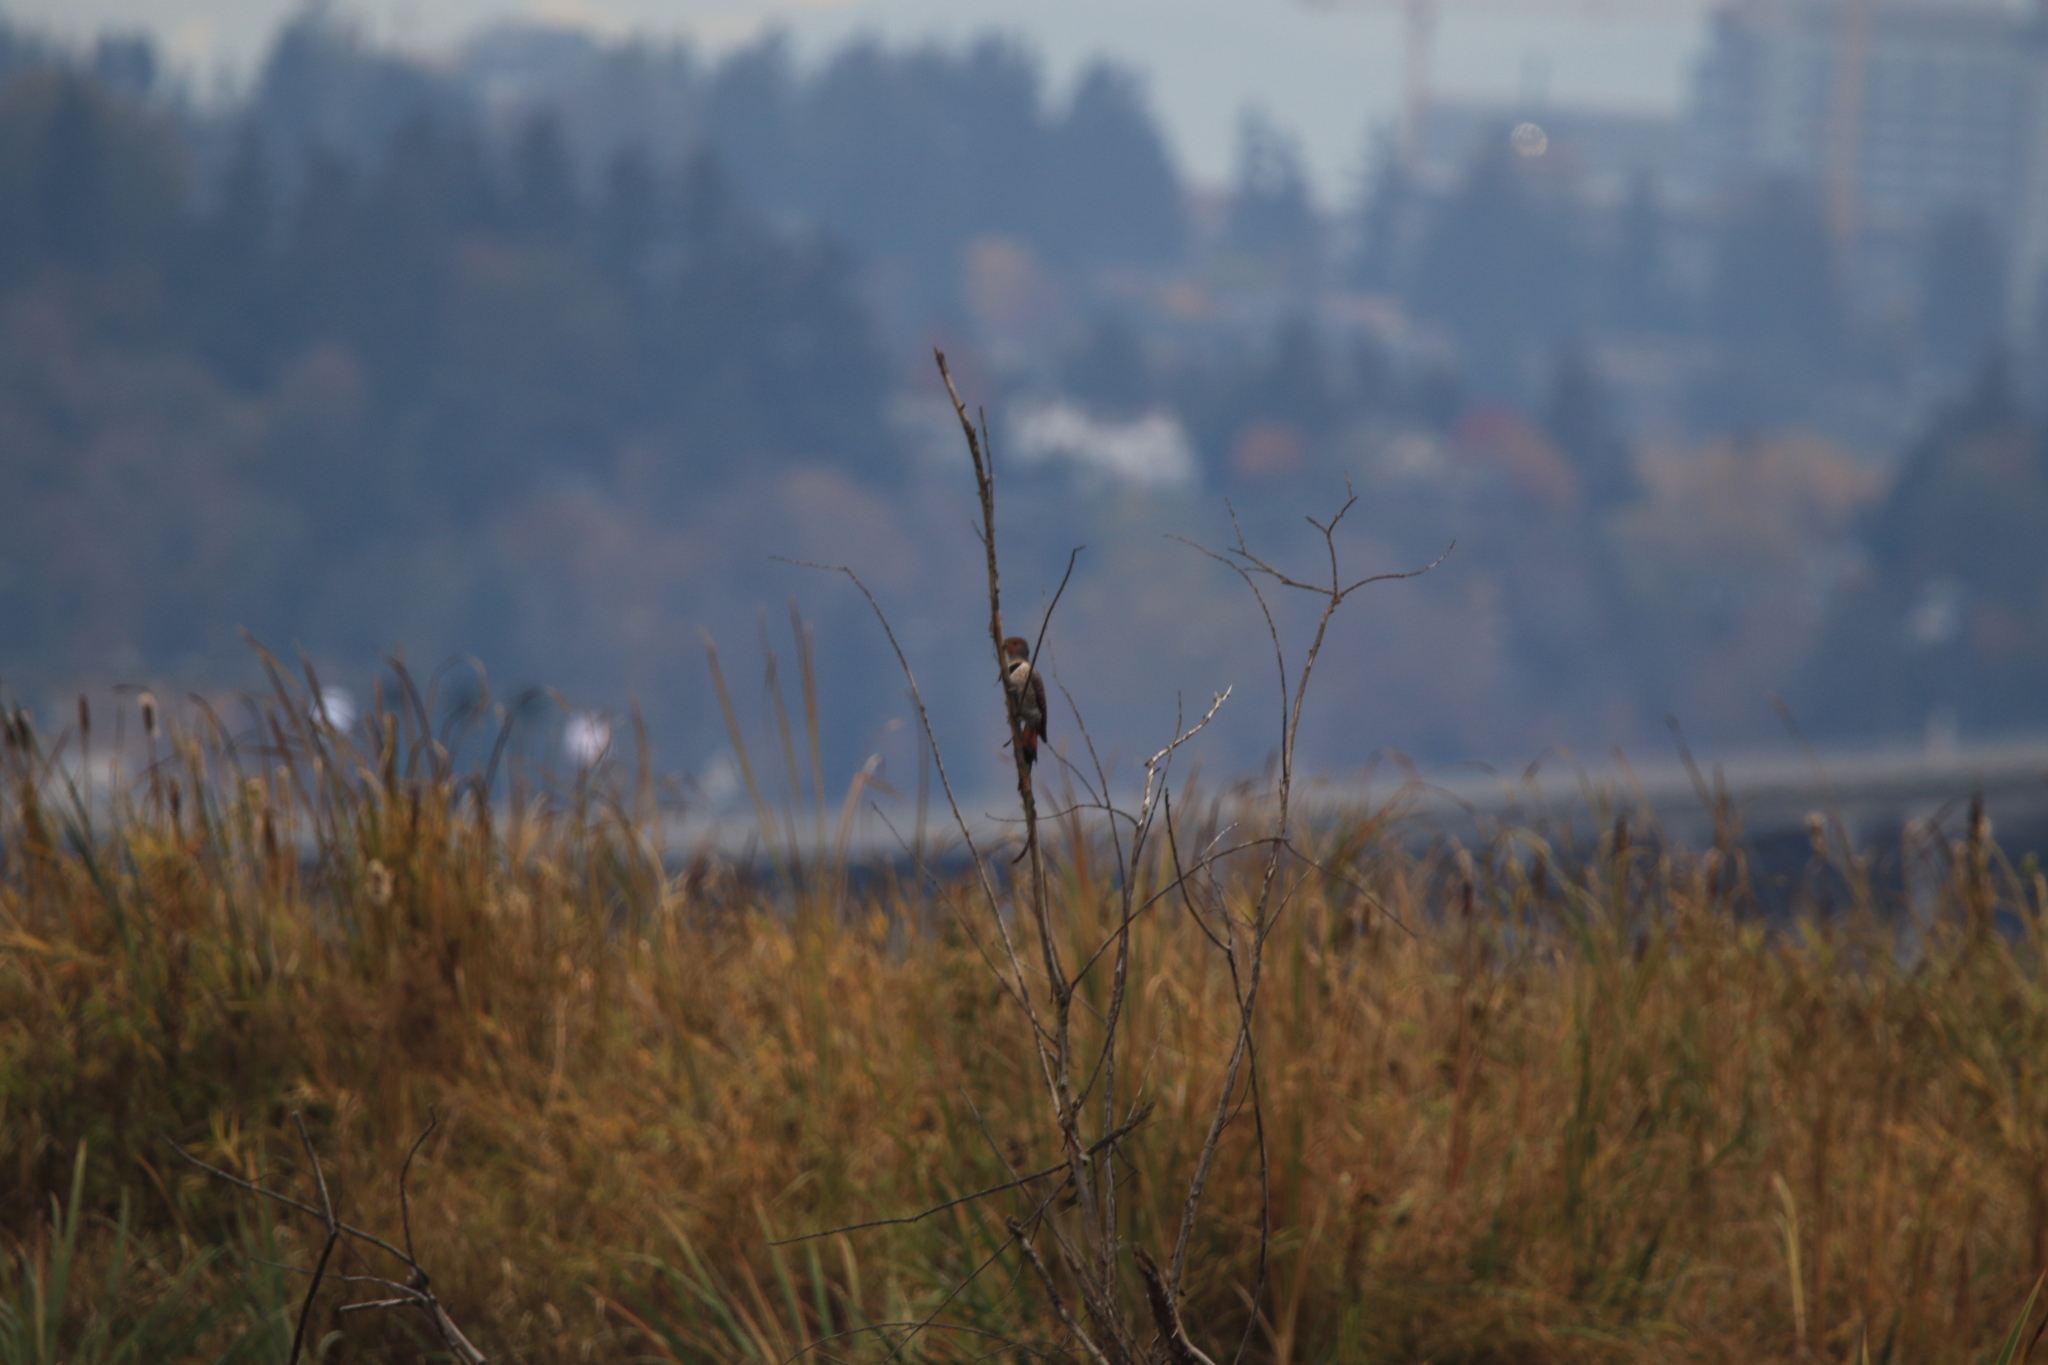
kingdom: Animalia
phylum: Chordata
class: Aves
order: Piciformes
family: Picidae
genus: Colaptes
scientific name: Colaptes auratus
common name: Northern flicker
